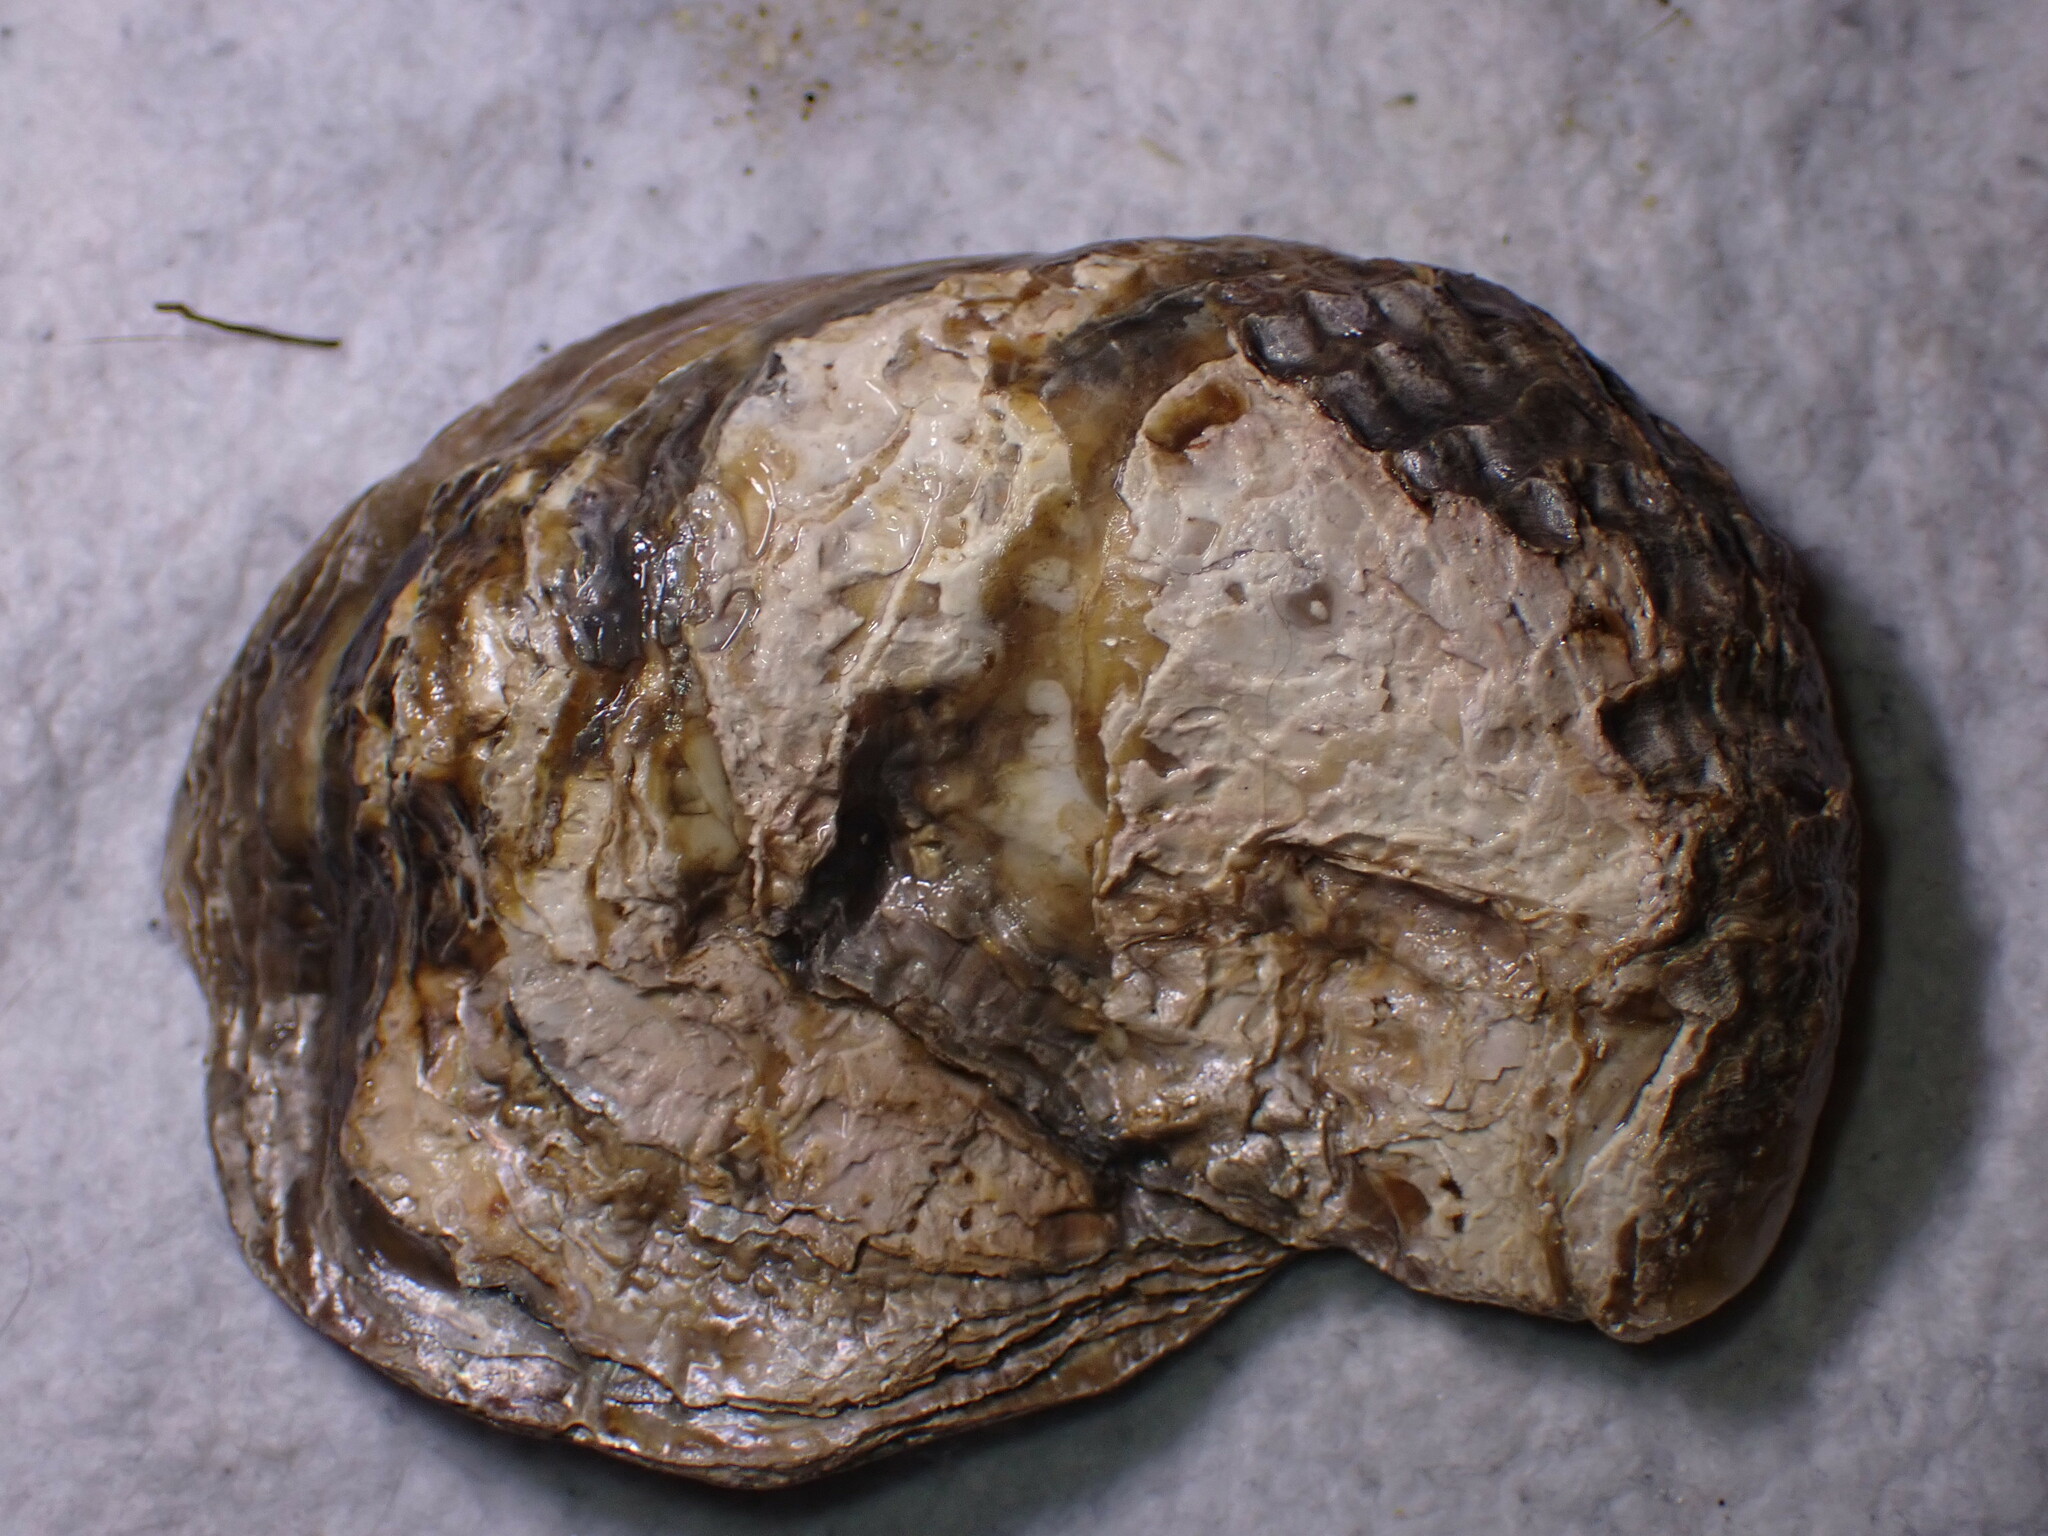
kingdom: Animalia
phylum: Mollusca
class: Bivalvia
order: Ostreida
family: Ostreidae
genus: Ostrea
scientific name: Ostrea edulis
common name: Flat oyster
